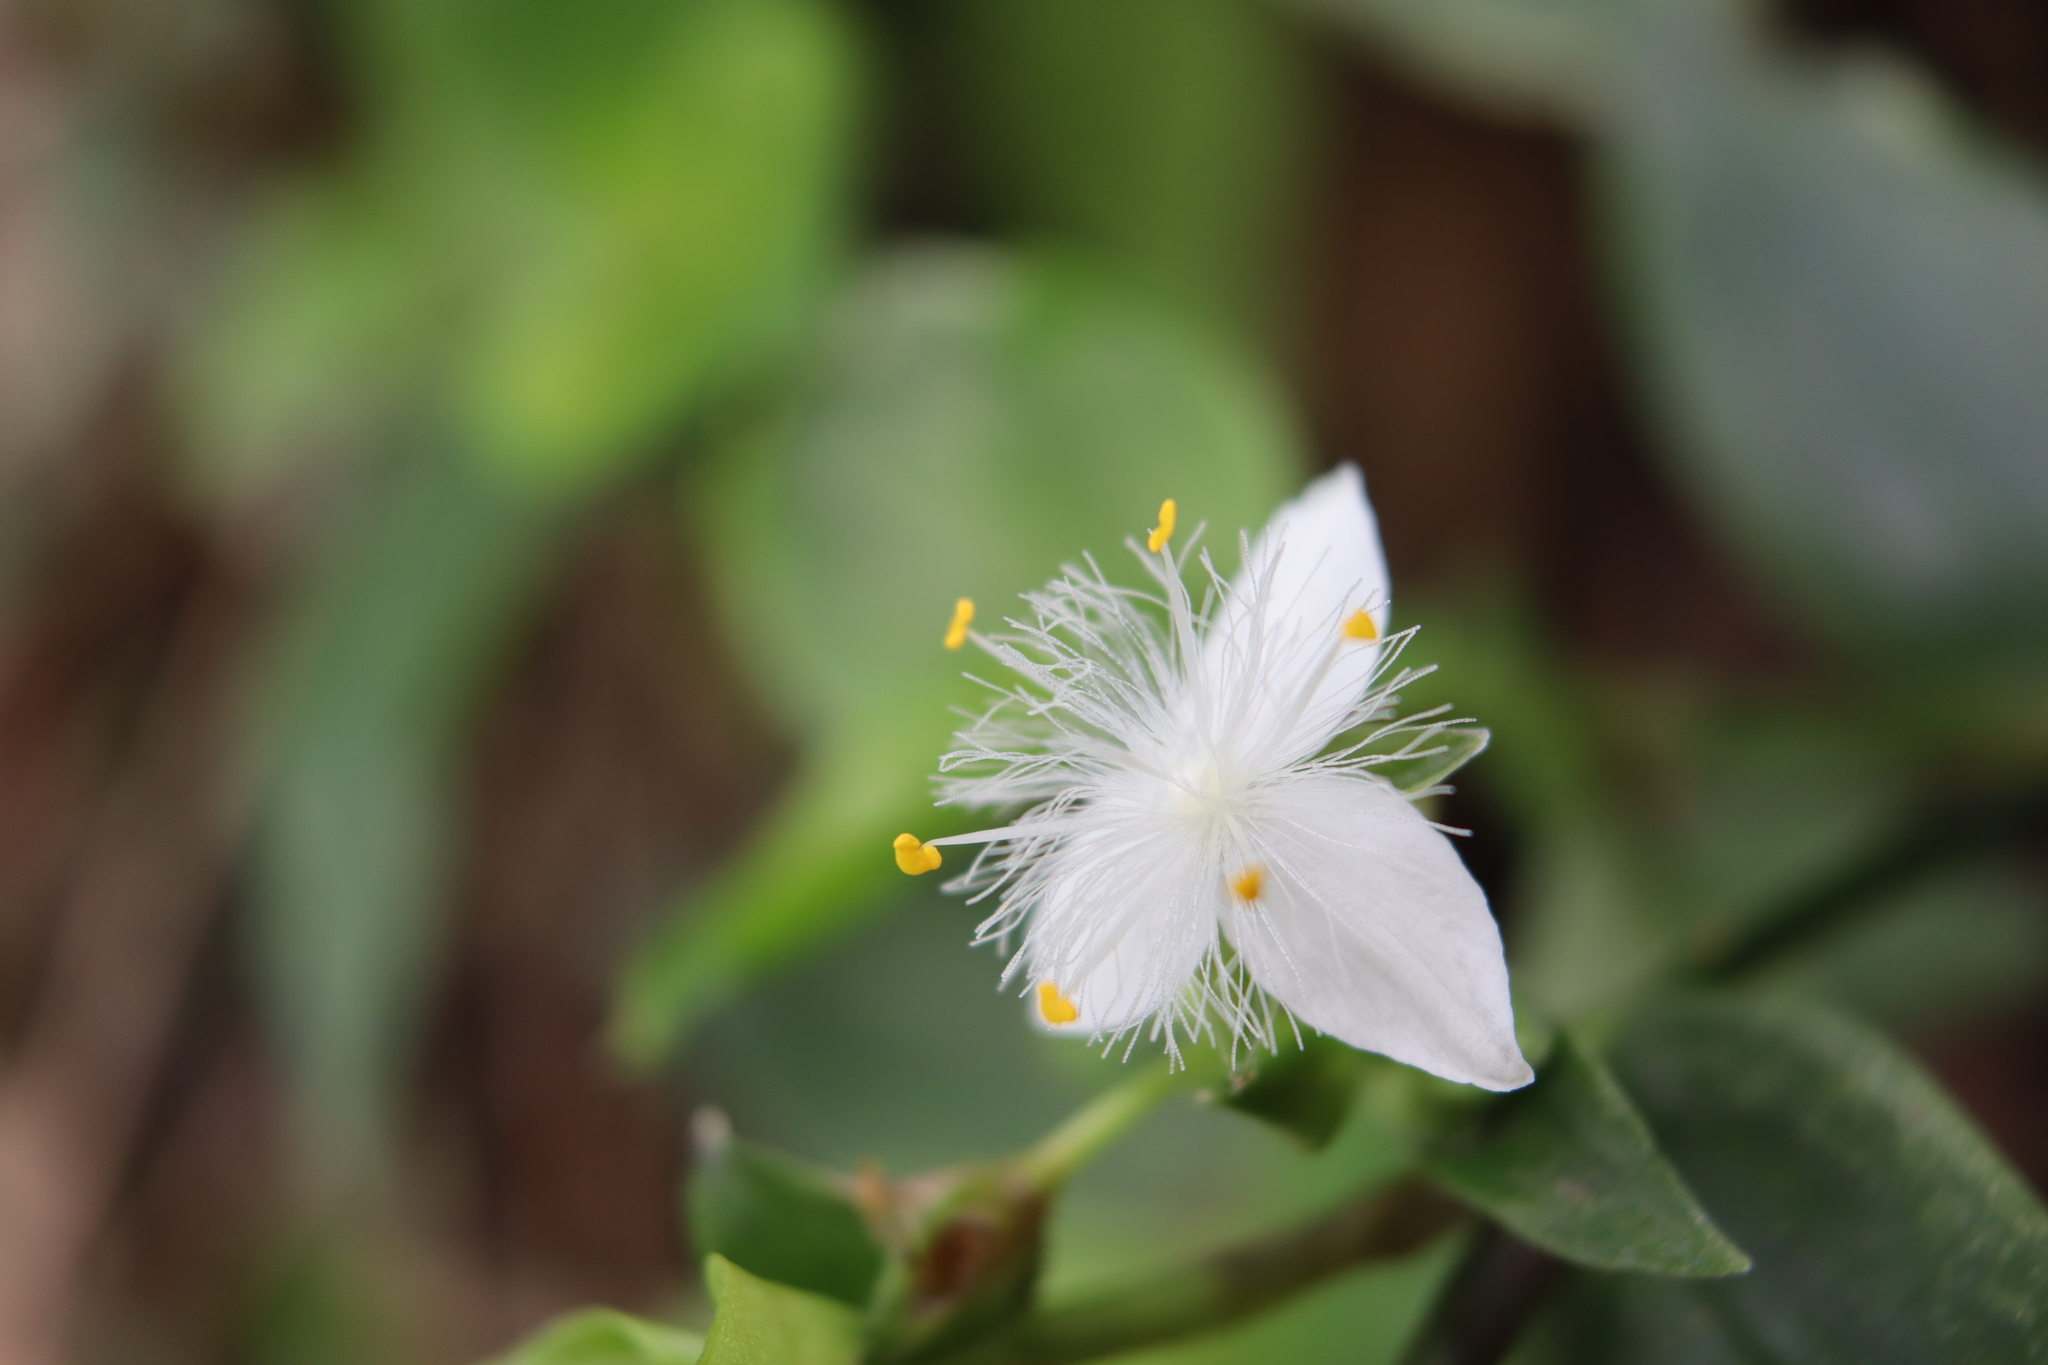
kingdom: Plantae
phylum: Tracheophyta
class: Liliopsida
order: Commelinales
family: Commelinaceae
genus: Tradescantia
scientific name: Tradescantia fluminensis
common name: Wandering-jew
